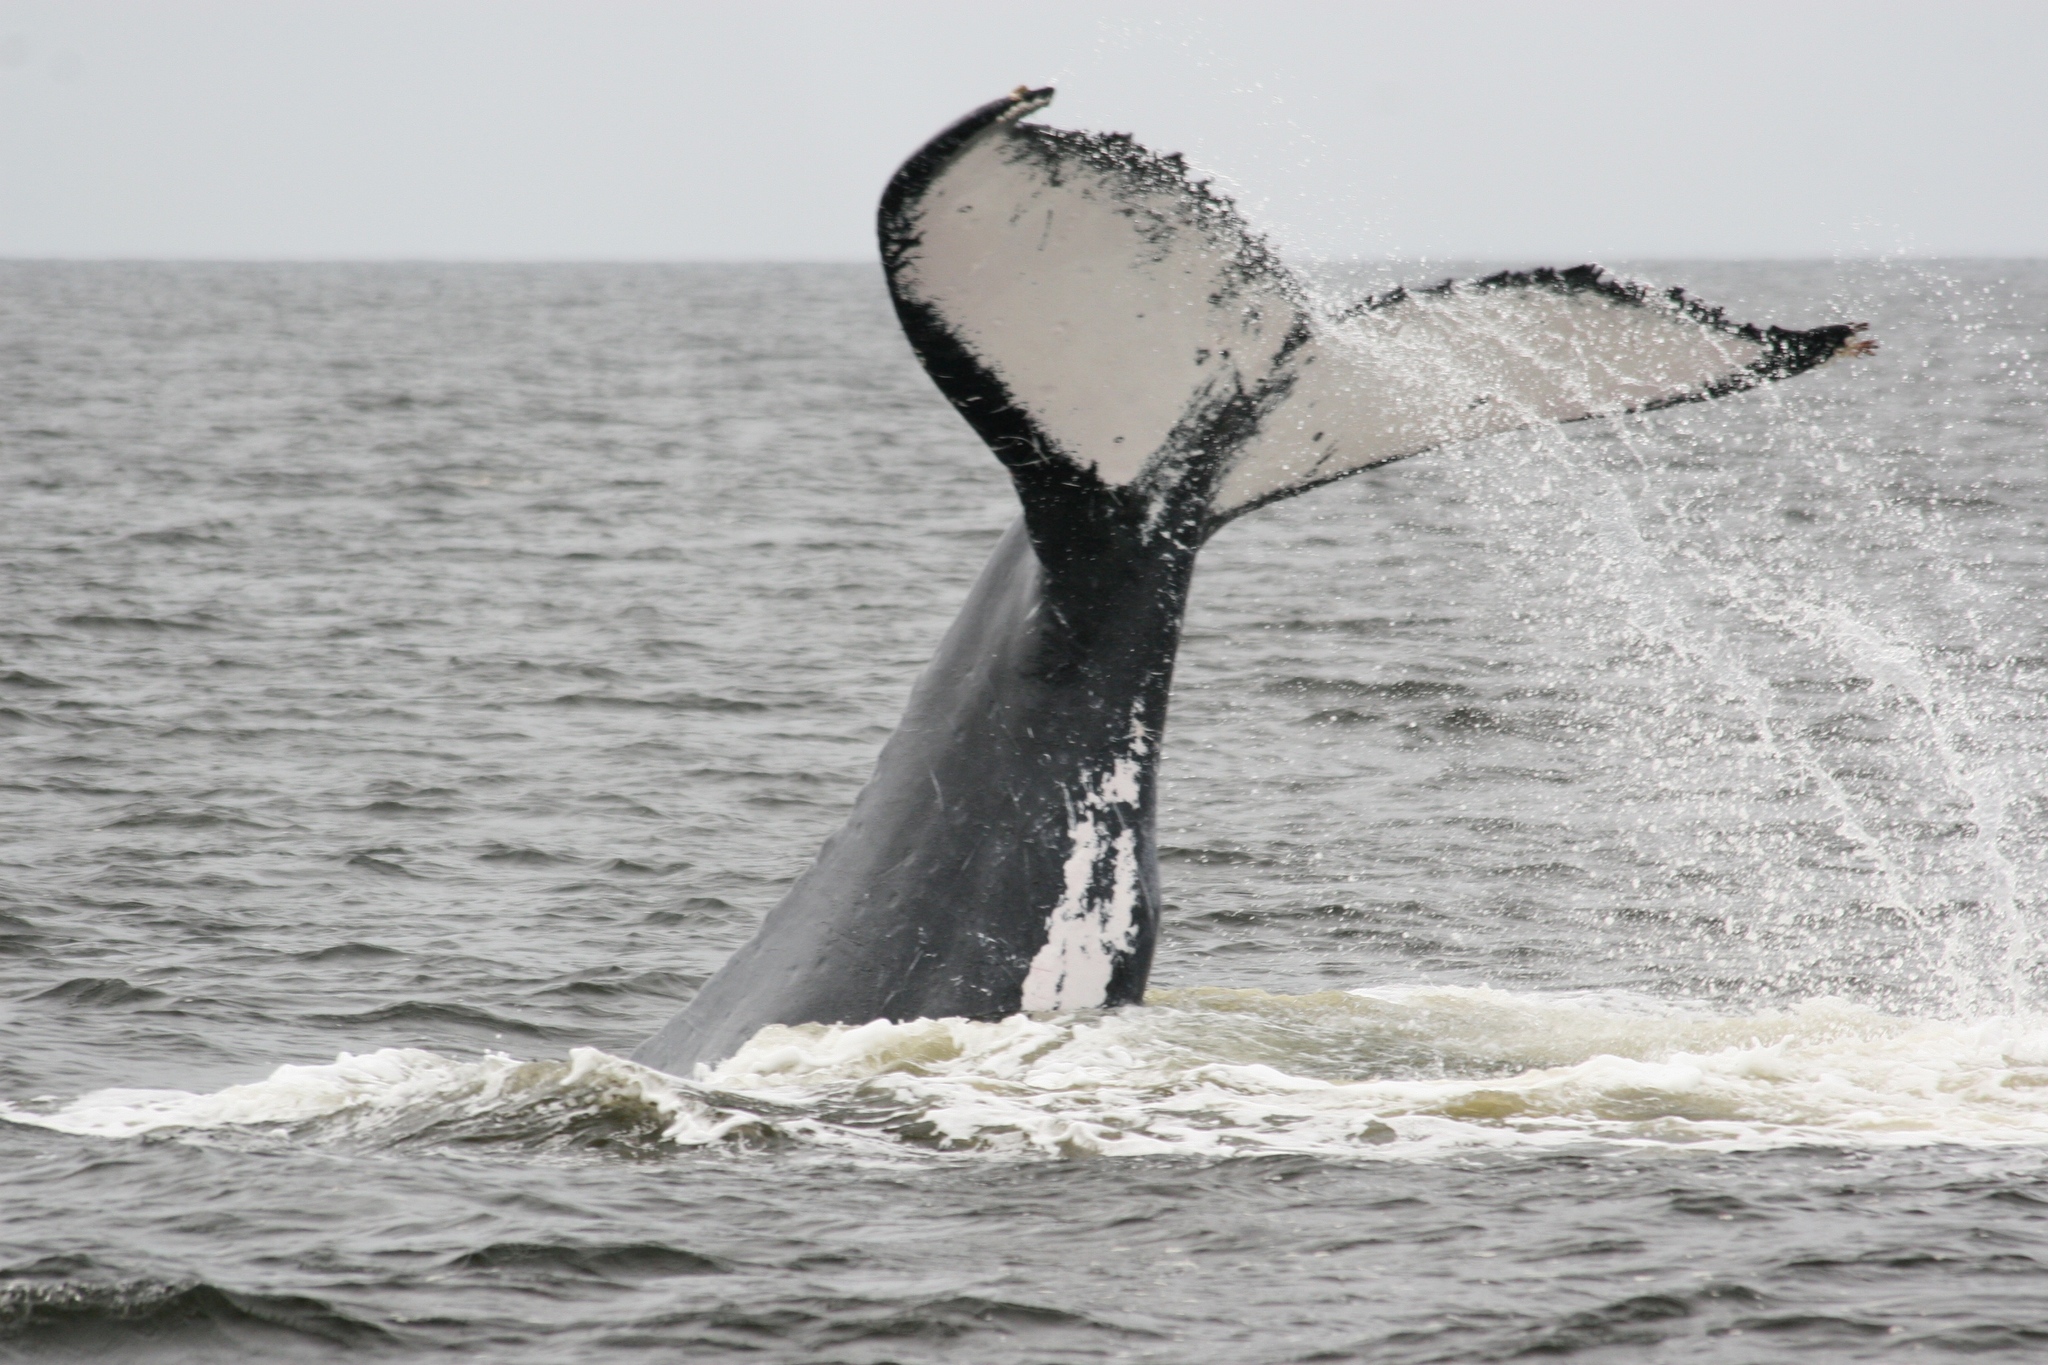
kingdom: Animalia
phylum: Chordata
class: Mammalia
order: Cetacea
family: Balaenopteridae
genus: Megaptera
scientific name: Megaptera novaeangliae
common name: Humpback whale
